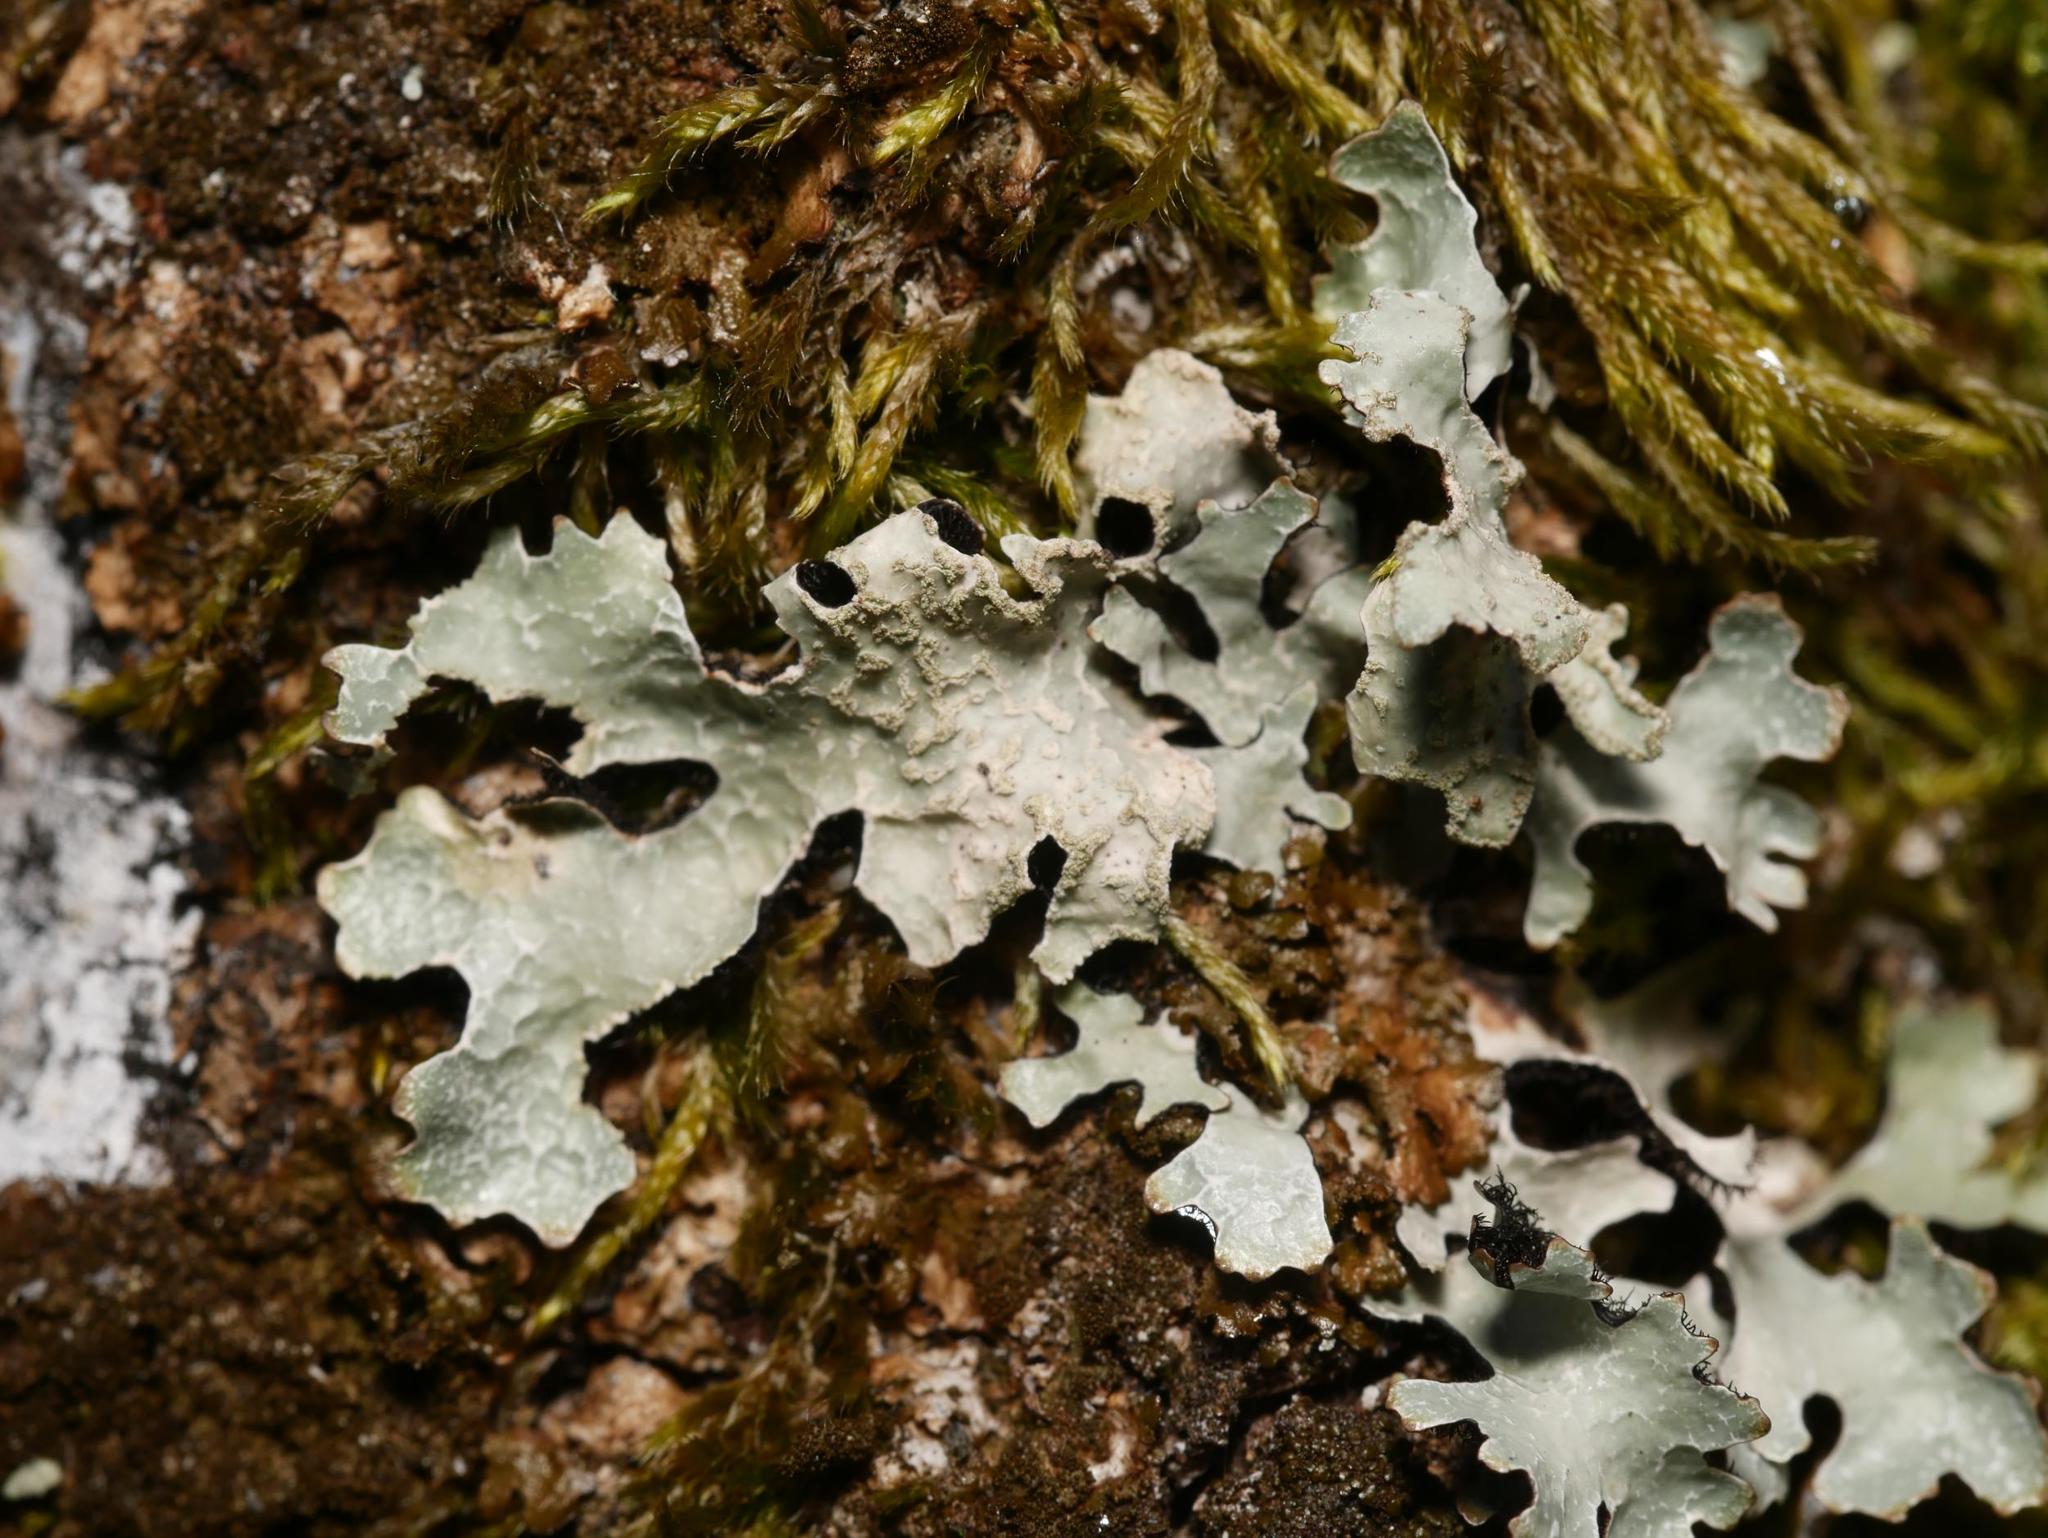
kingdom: Fungi
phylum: Ascomycota
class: Lecanoromycetes
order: Lecanorales
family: Parmeliaceae
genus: Parmelia
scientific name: Parmelia sulcata
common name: Netted shield lichen
